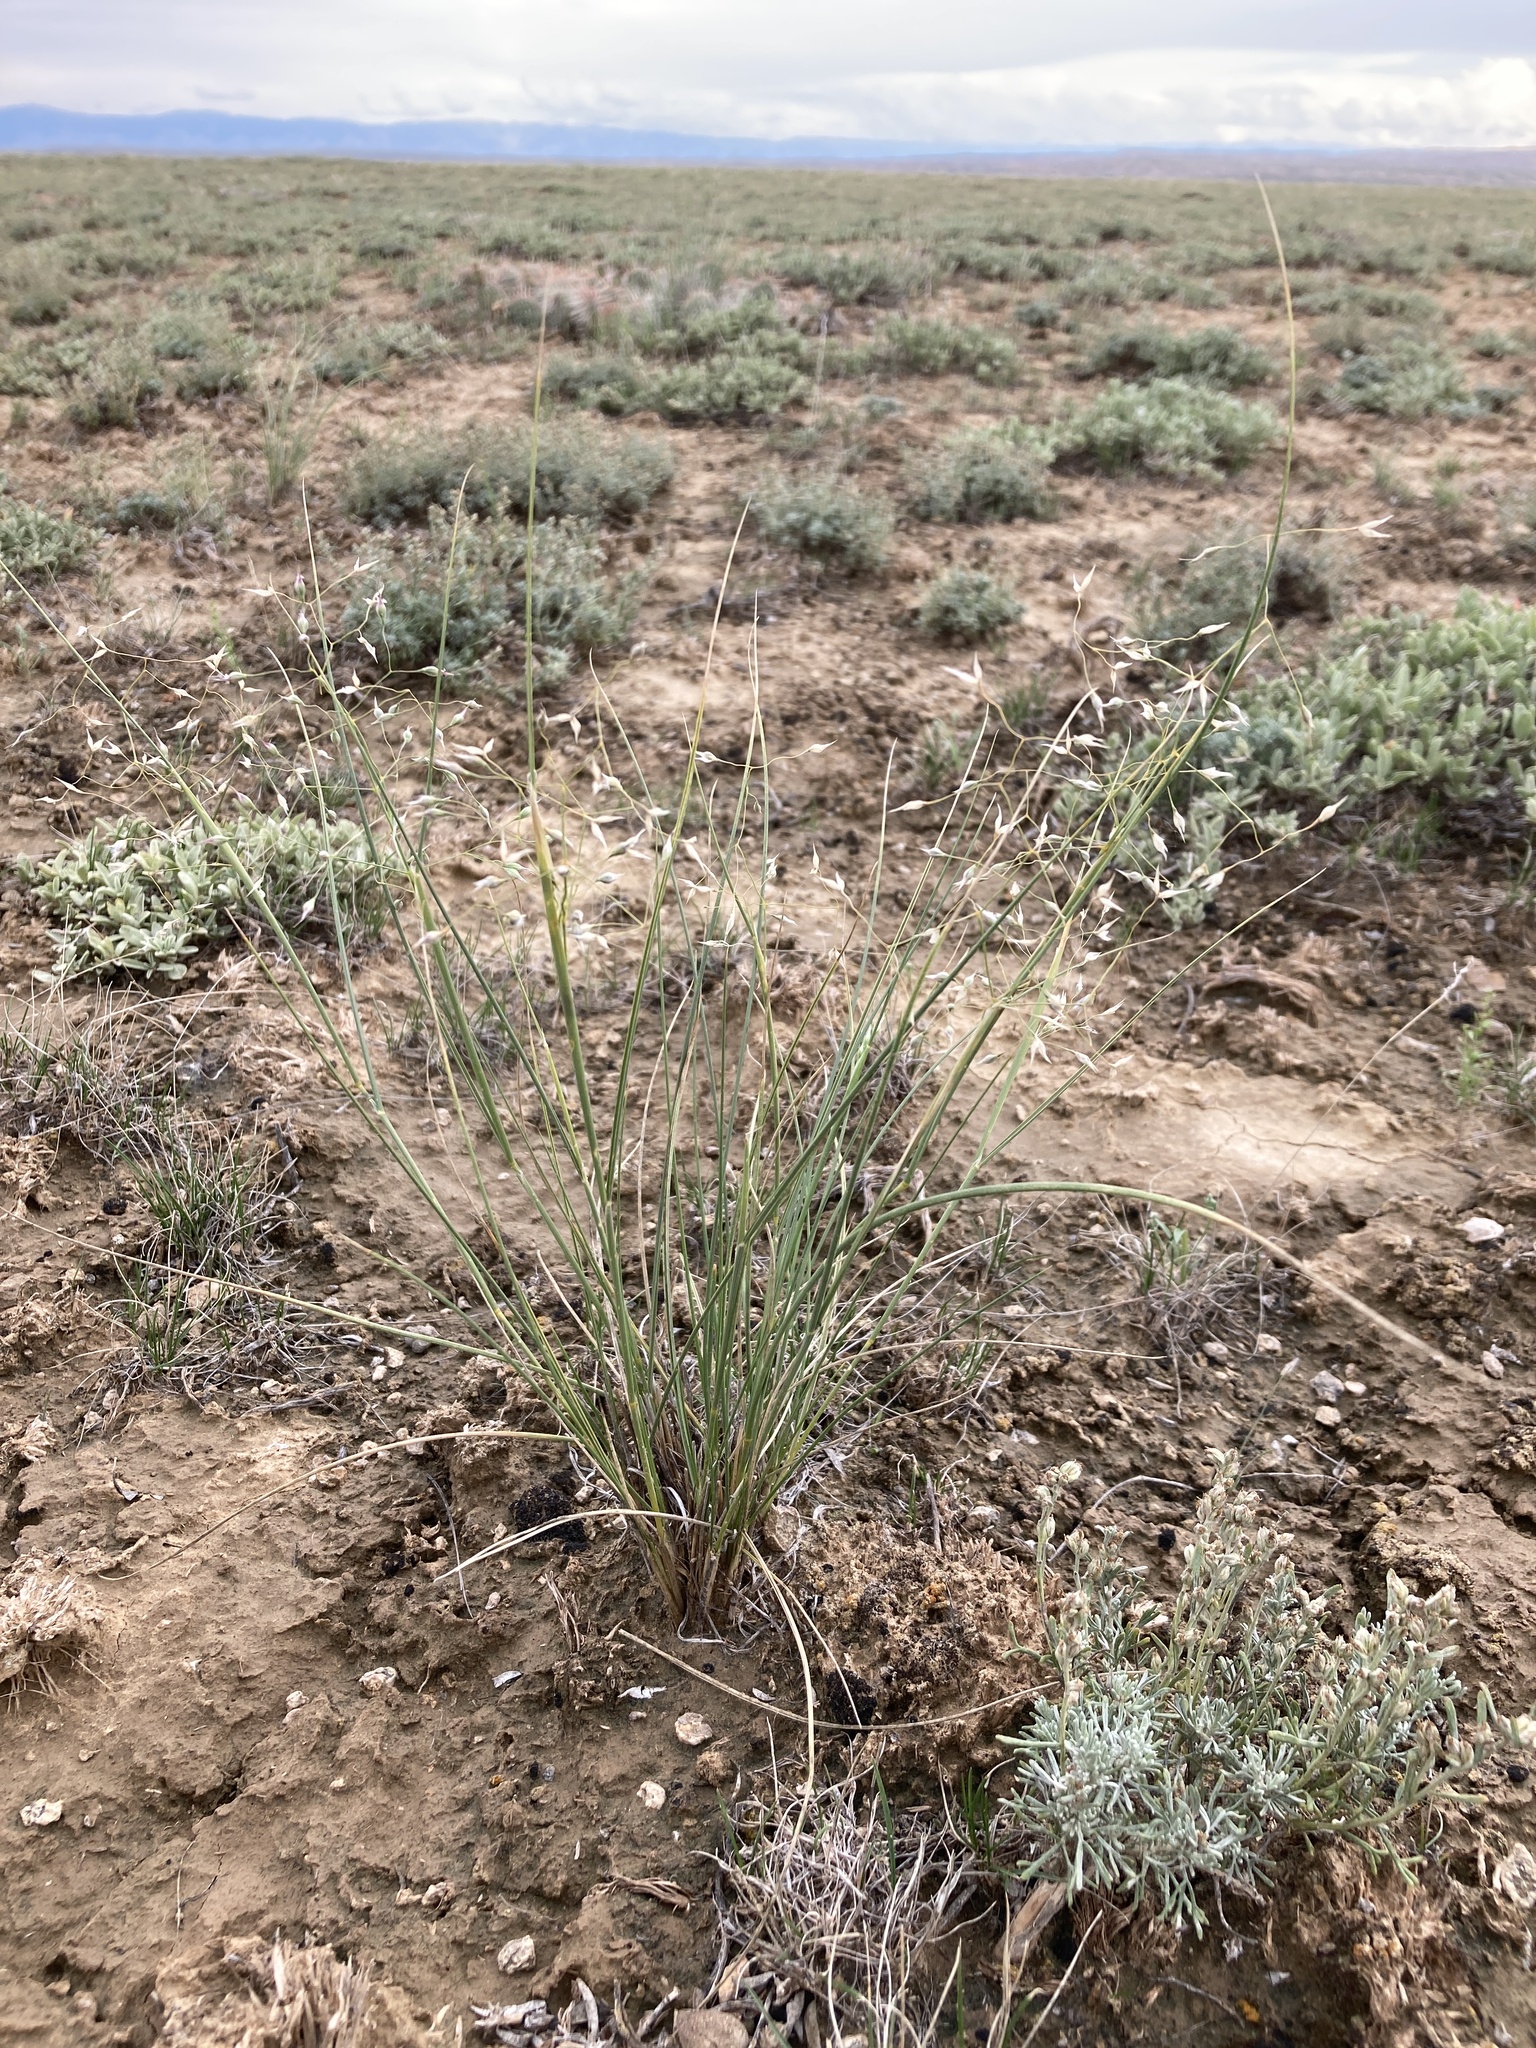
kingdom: Plantae
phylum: Tracheophyta
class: Liliopsida
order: Poales
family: Poaceae
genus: Eriocoma
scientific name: Eriocoma hymenoides
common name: Indian mountain ricegrass
